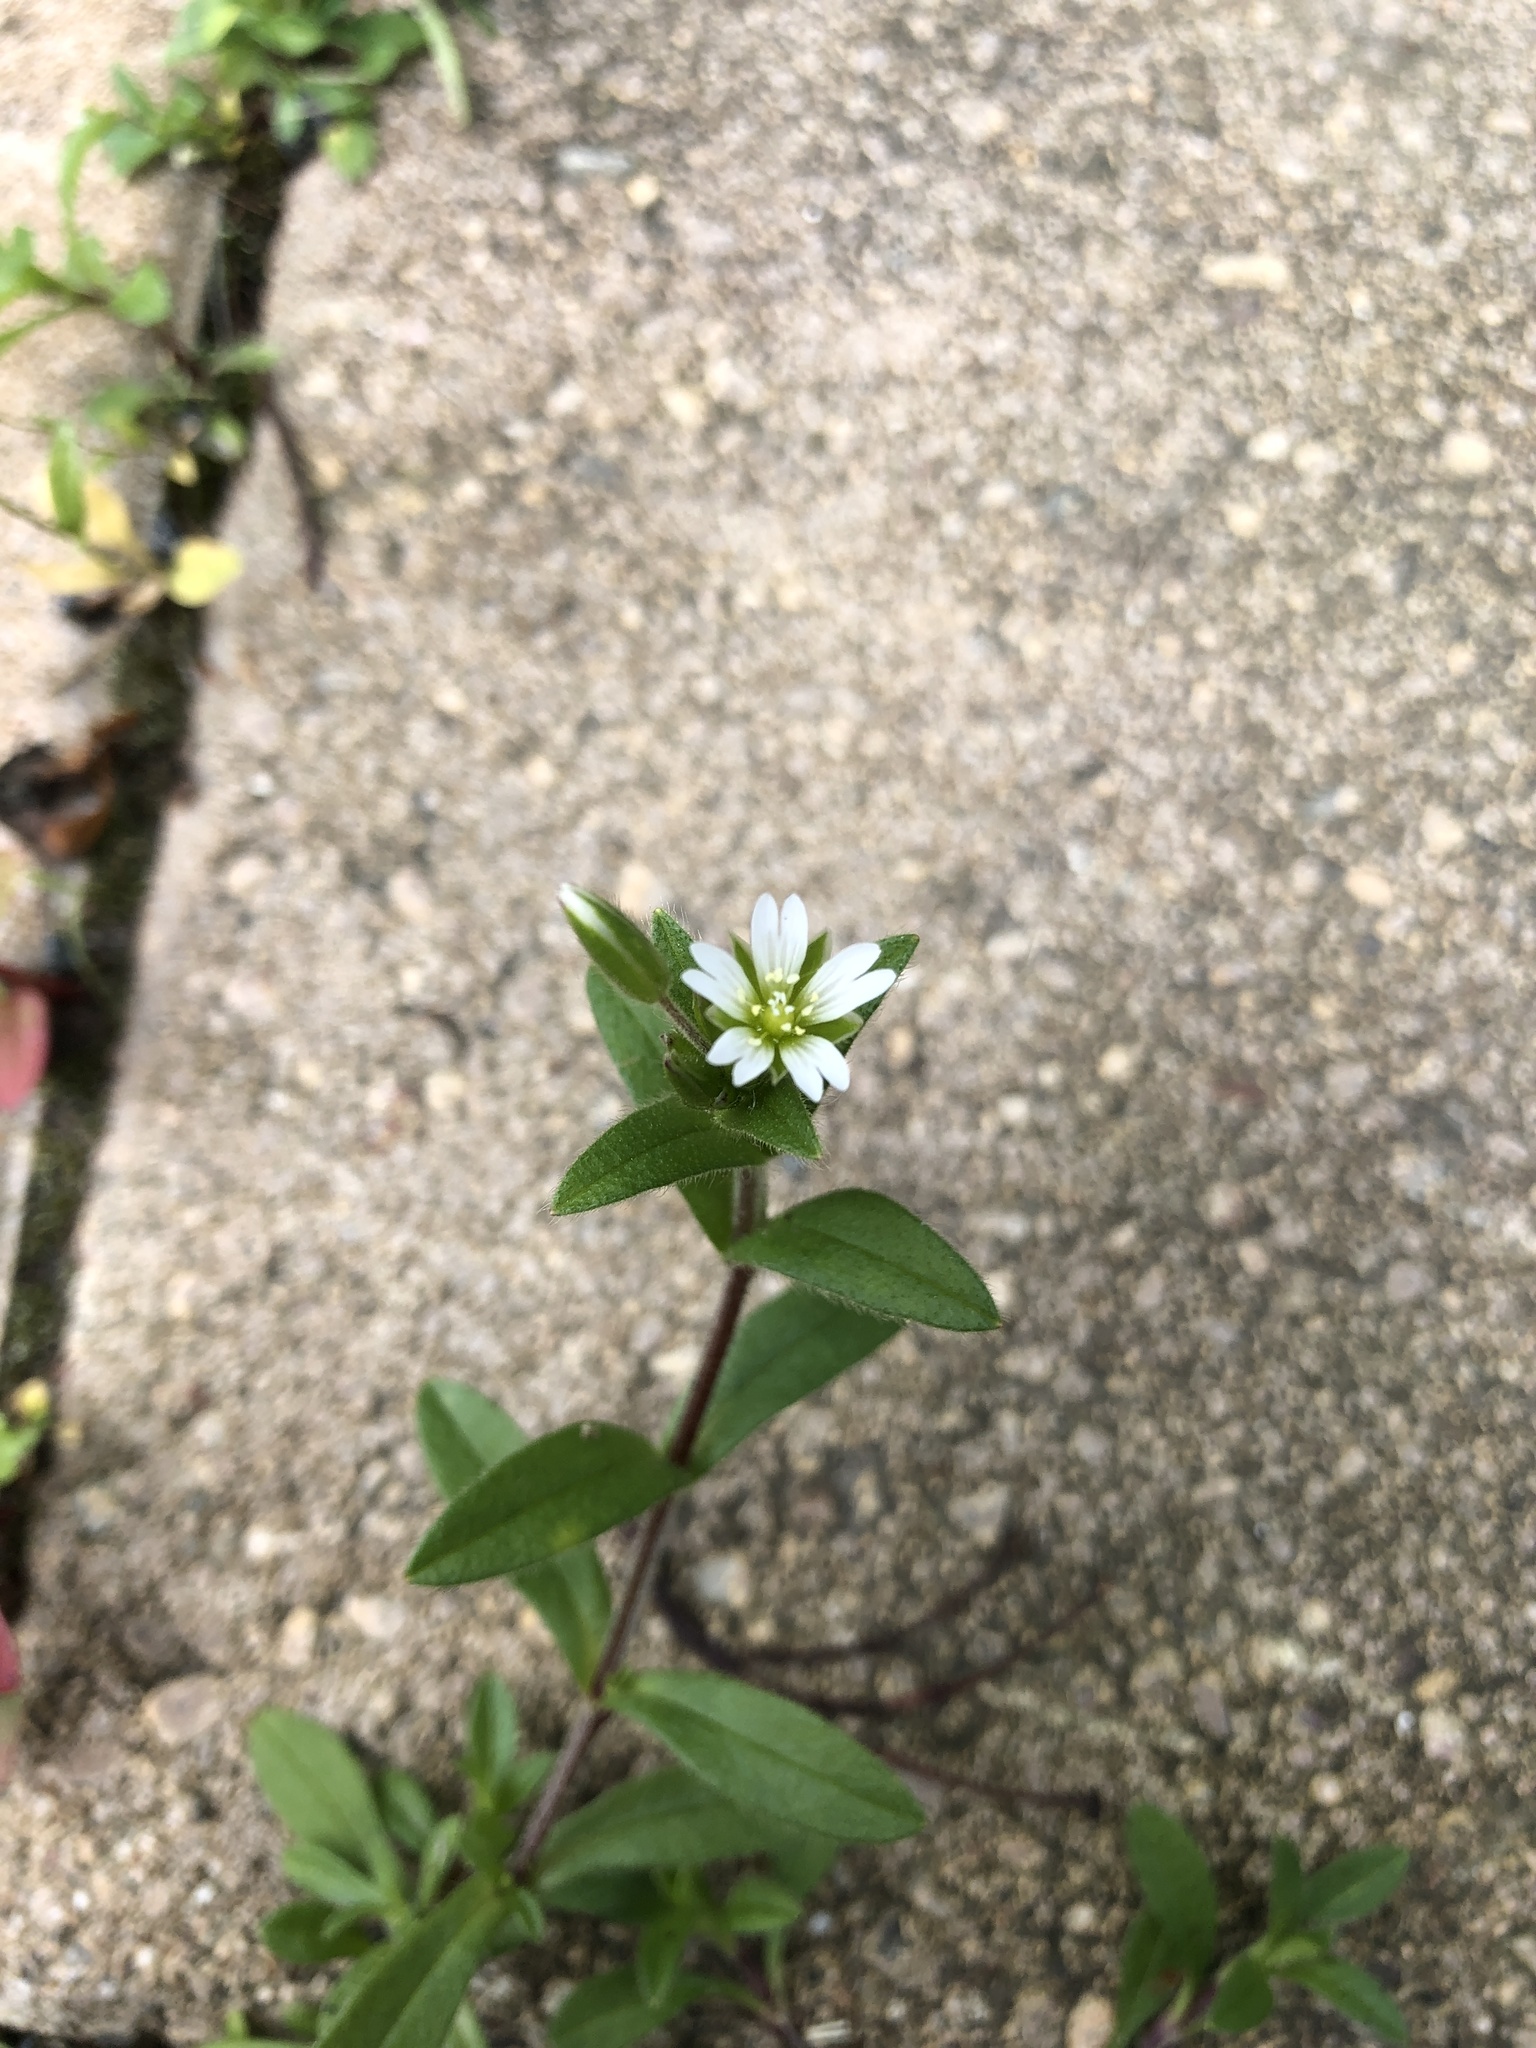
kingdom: Plantae
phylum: Tracheophyta
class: Magnoliopsida
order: Caryophyllales
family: Caryophyllaceae
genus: Cerastium
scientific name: Cerastium holosteoides
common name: Big chickweed
